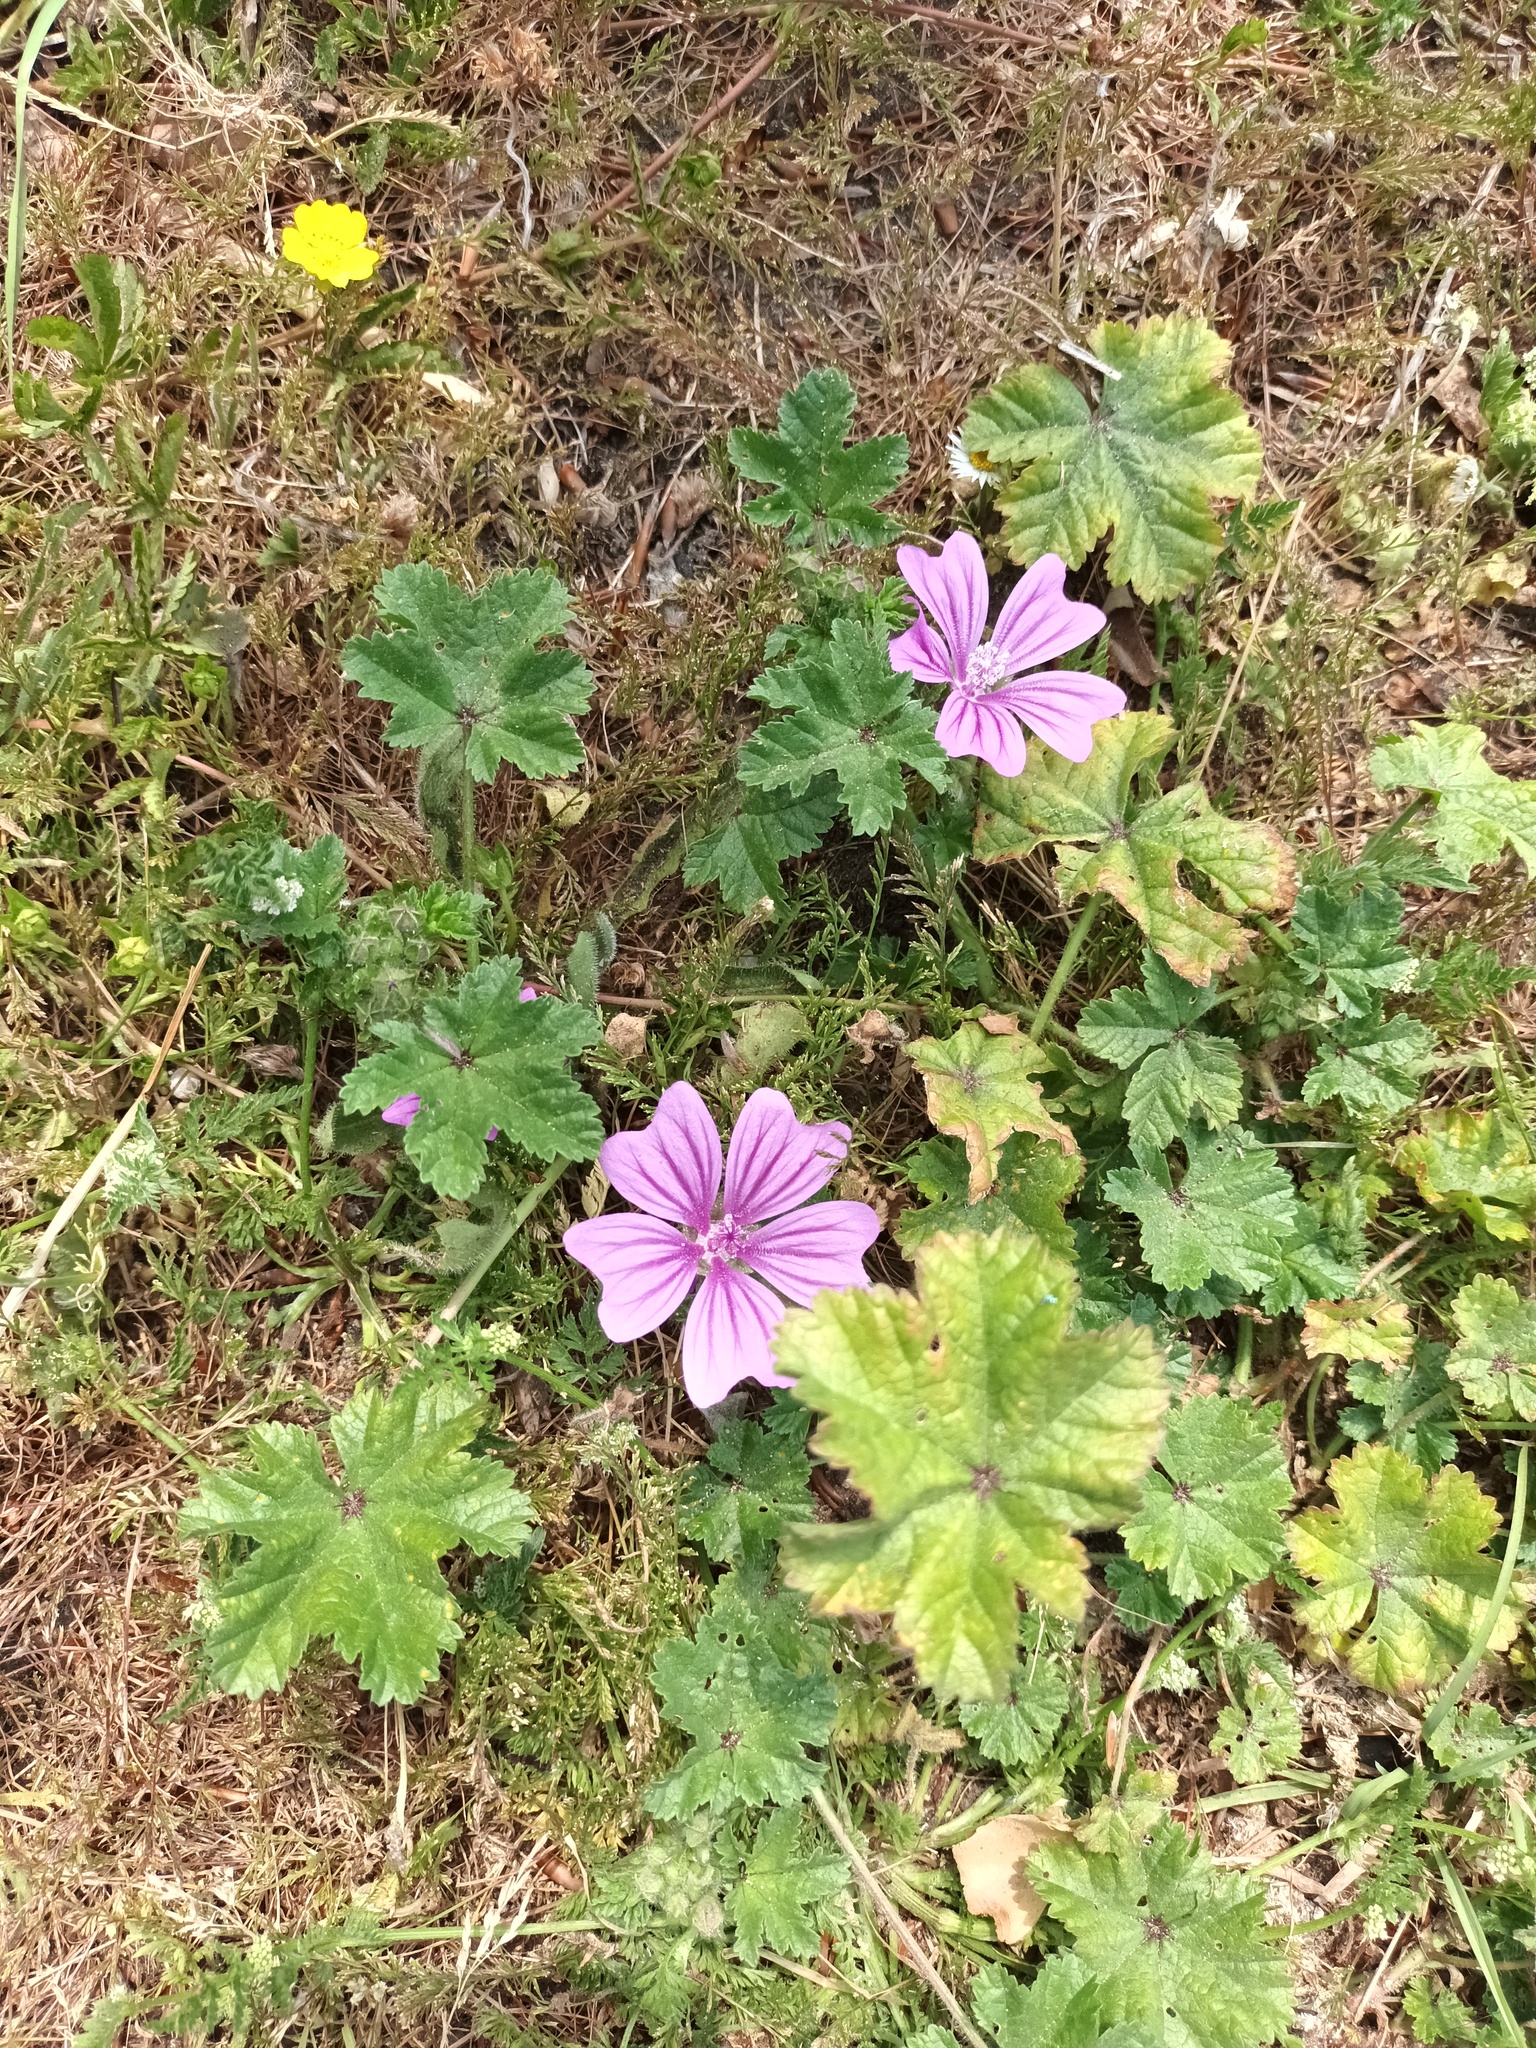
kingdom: Plantae
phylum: Tracheophyta
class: Magnoliopsida
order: Malvales
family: Malvaceae
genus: Malva
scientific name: Malva sylvestris
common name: Common mallow
